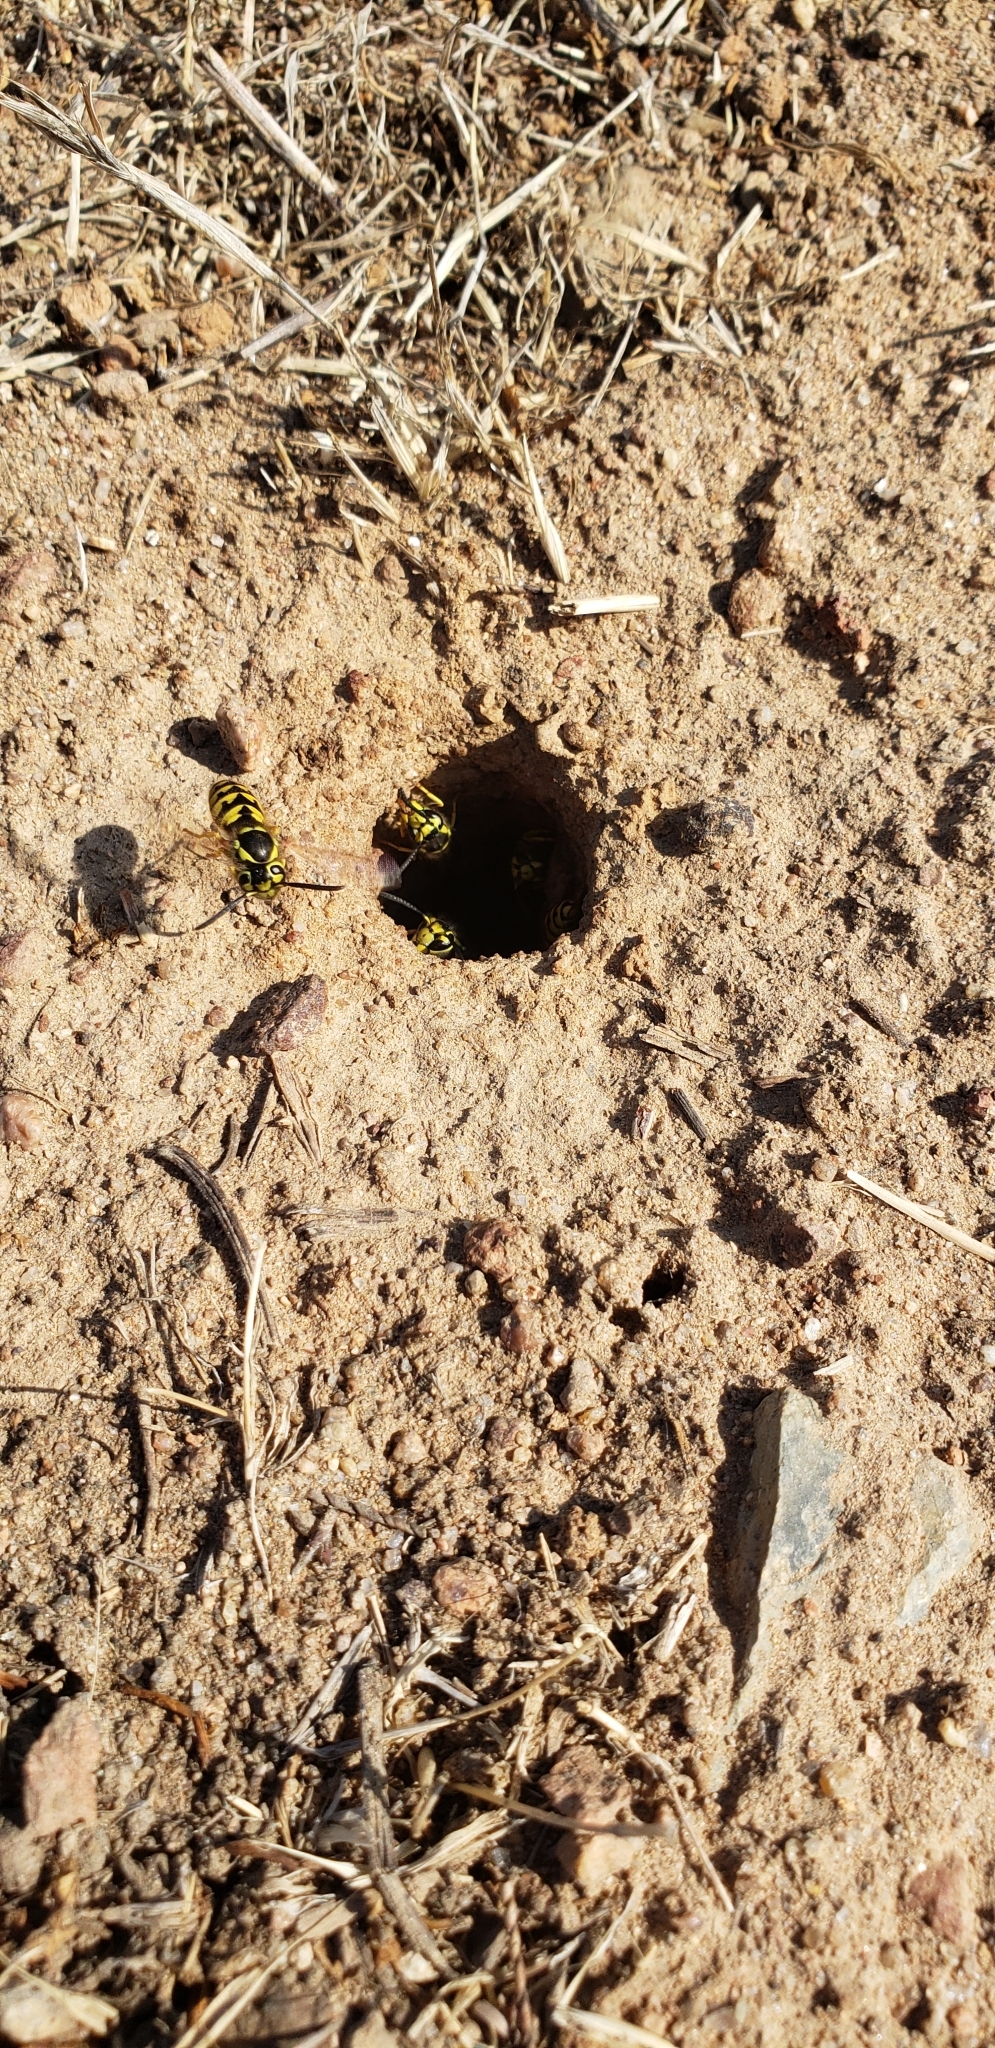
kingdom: Animalia
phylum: Arthropoda
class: Insecta
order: Hymenoptera
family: Vespidae
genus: Vespula
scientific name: Vespula pensylvanica
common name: Western yellowjacket
